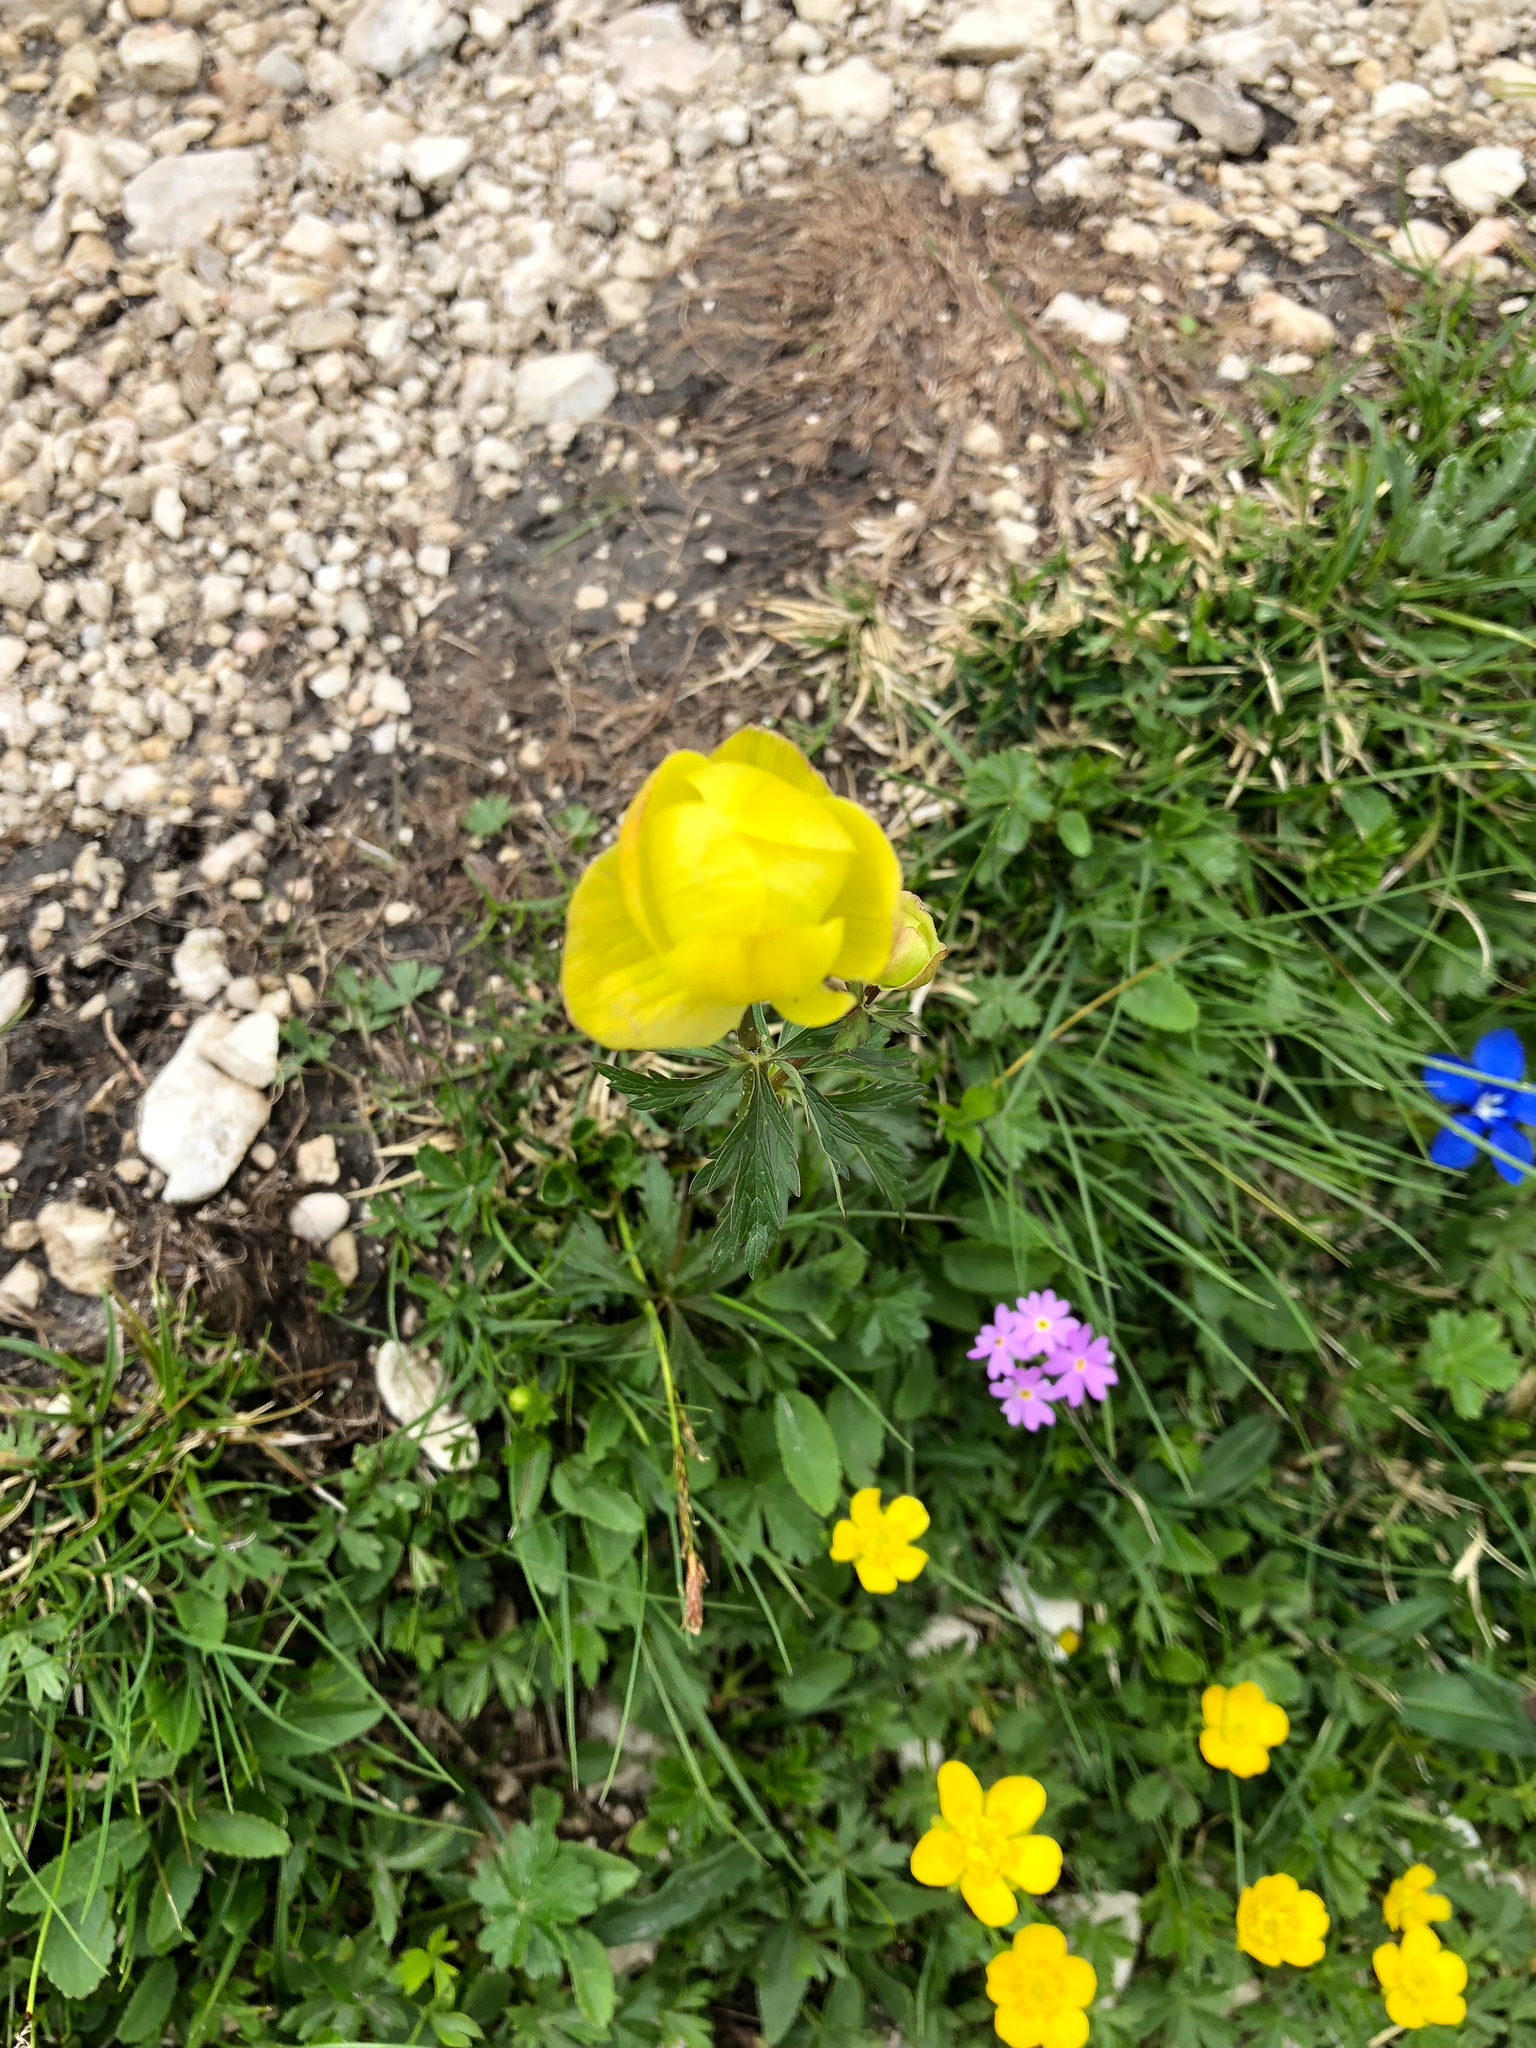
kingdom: Plantae
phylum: Tracheophyta
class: Magnoliopsida
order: Ranunculales
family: Ranunculaceae
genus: Trollius
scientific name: Trollius europaeus
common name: European globeflower
